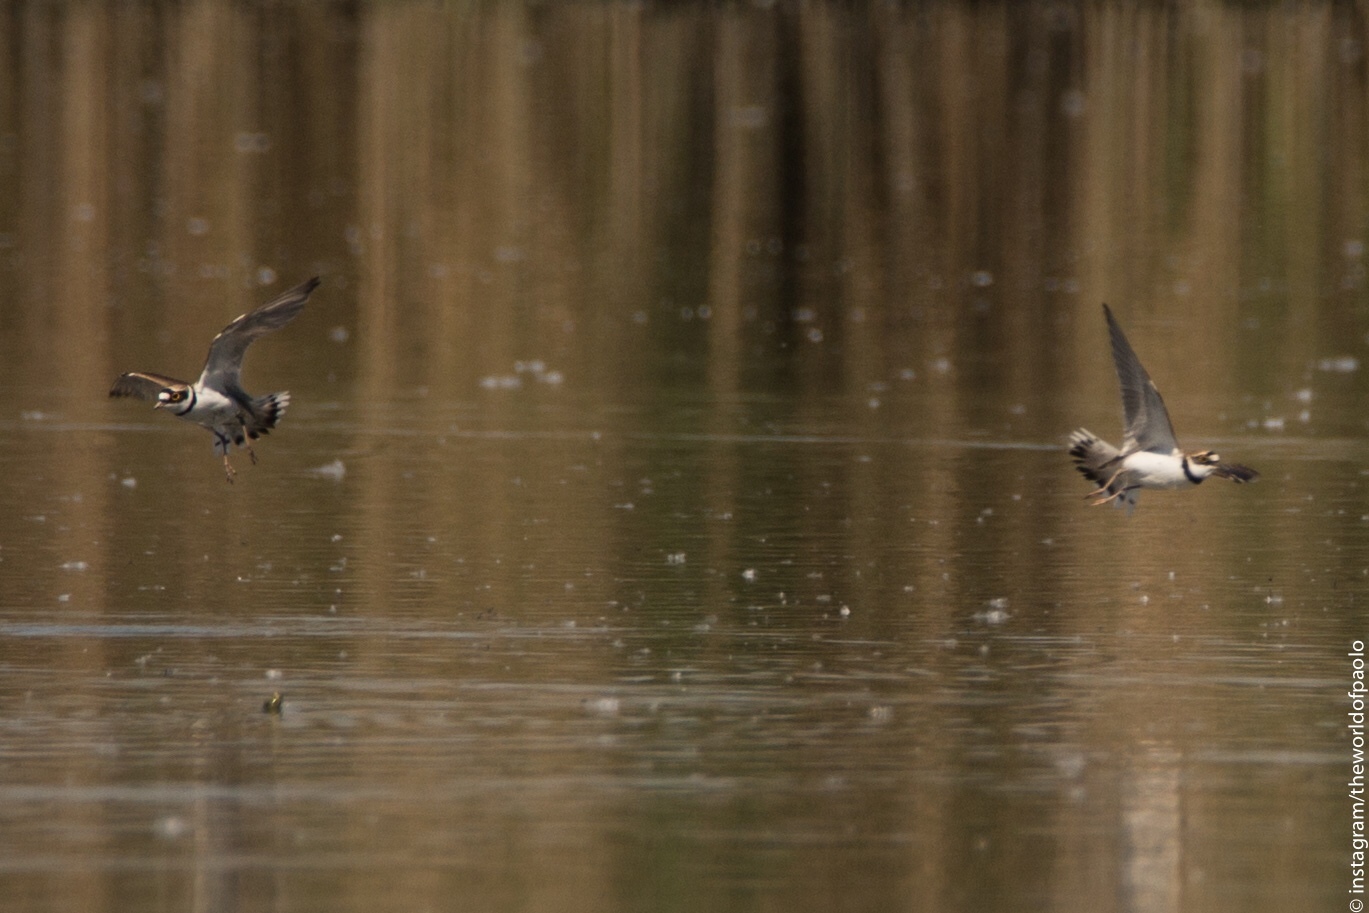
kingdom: Animalia
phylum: Chordata
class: Aves
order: Charadriiformes
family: Charadriidae
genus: Charadrius
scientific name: Charadrius dubius
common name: Little ringed plover
